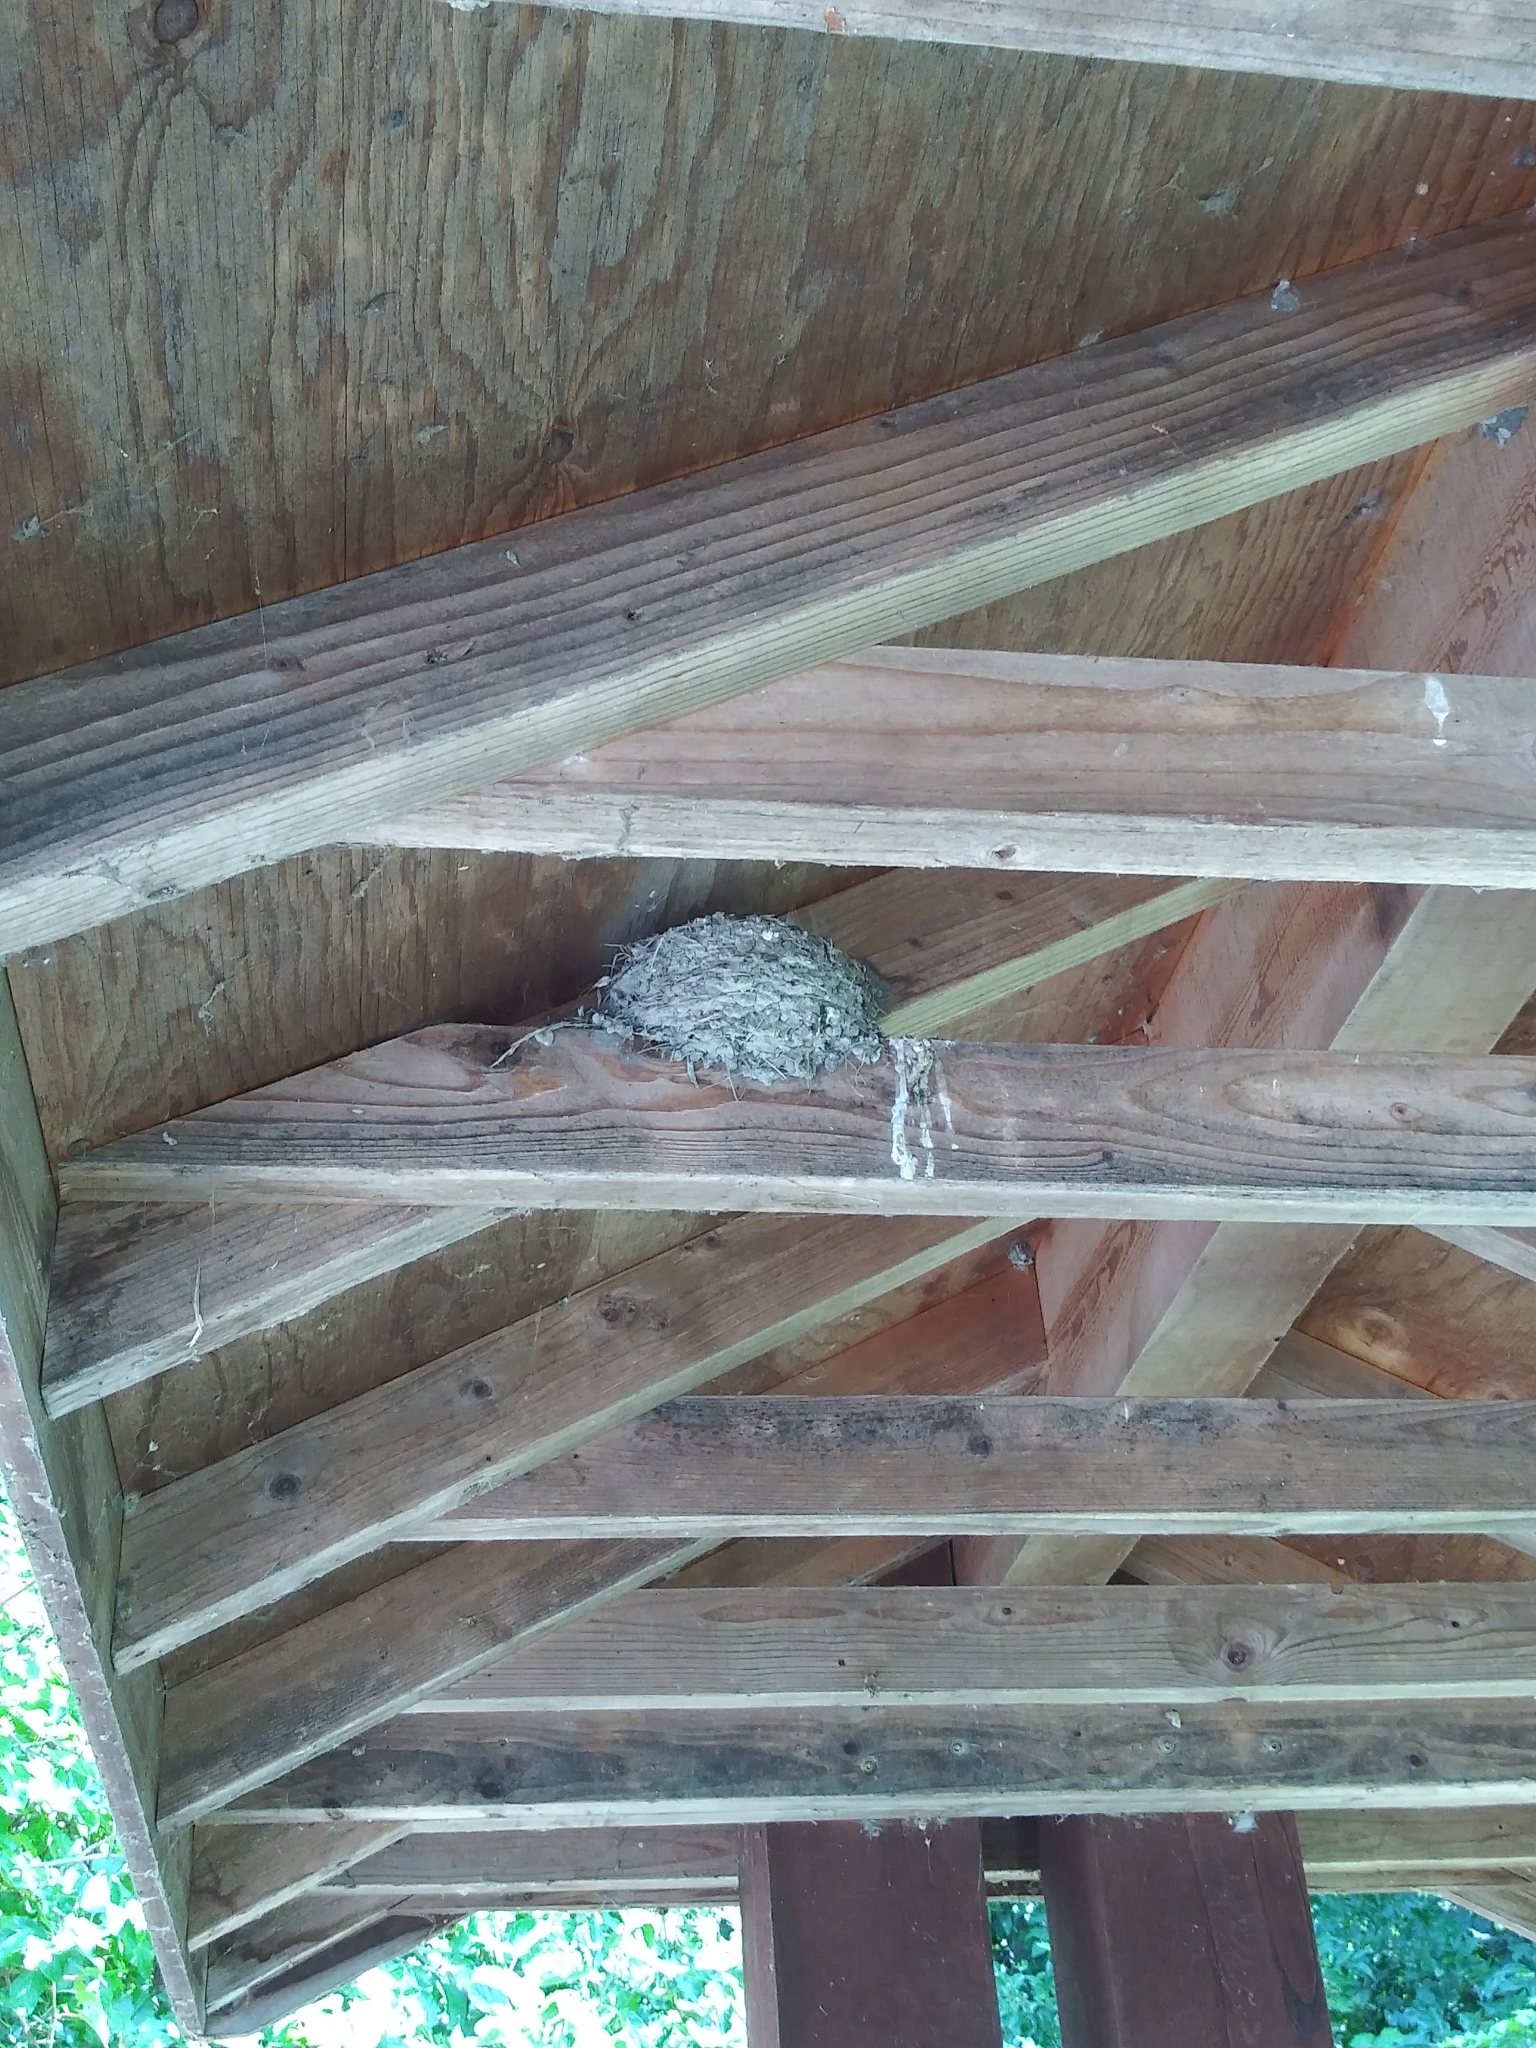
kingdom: Animalia
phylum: Chordata
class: Aves
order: Passeriformes
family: Hirundinidae
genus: Hirundo
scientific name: Hirundo rustica
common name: Barn swallow
